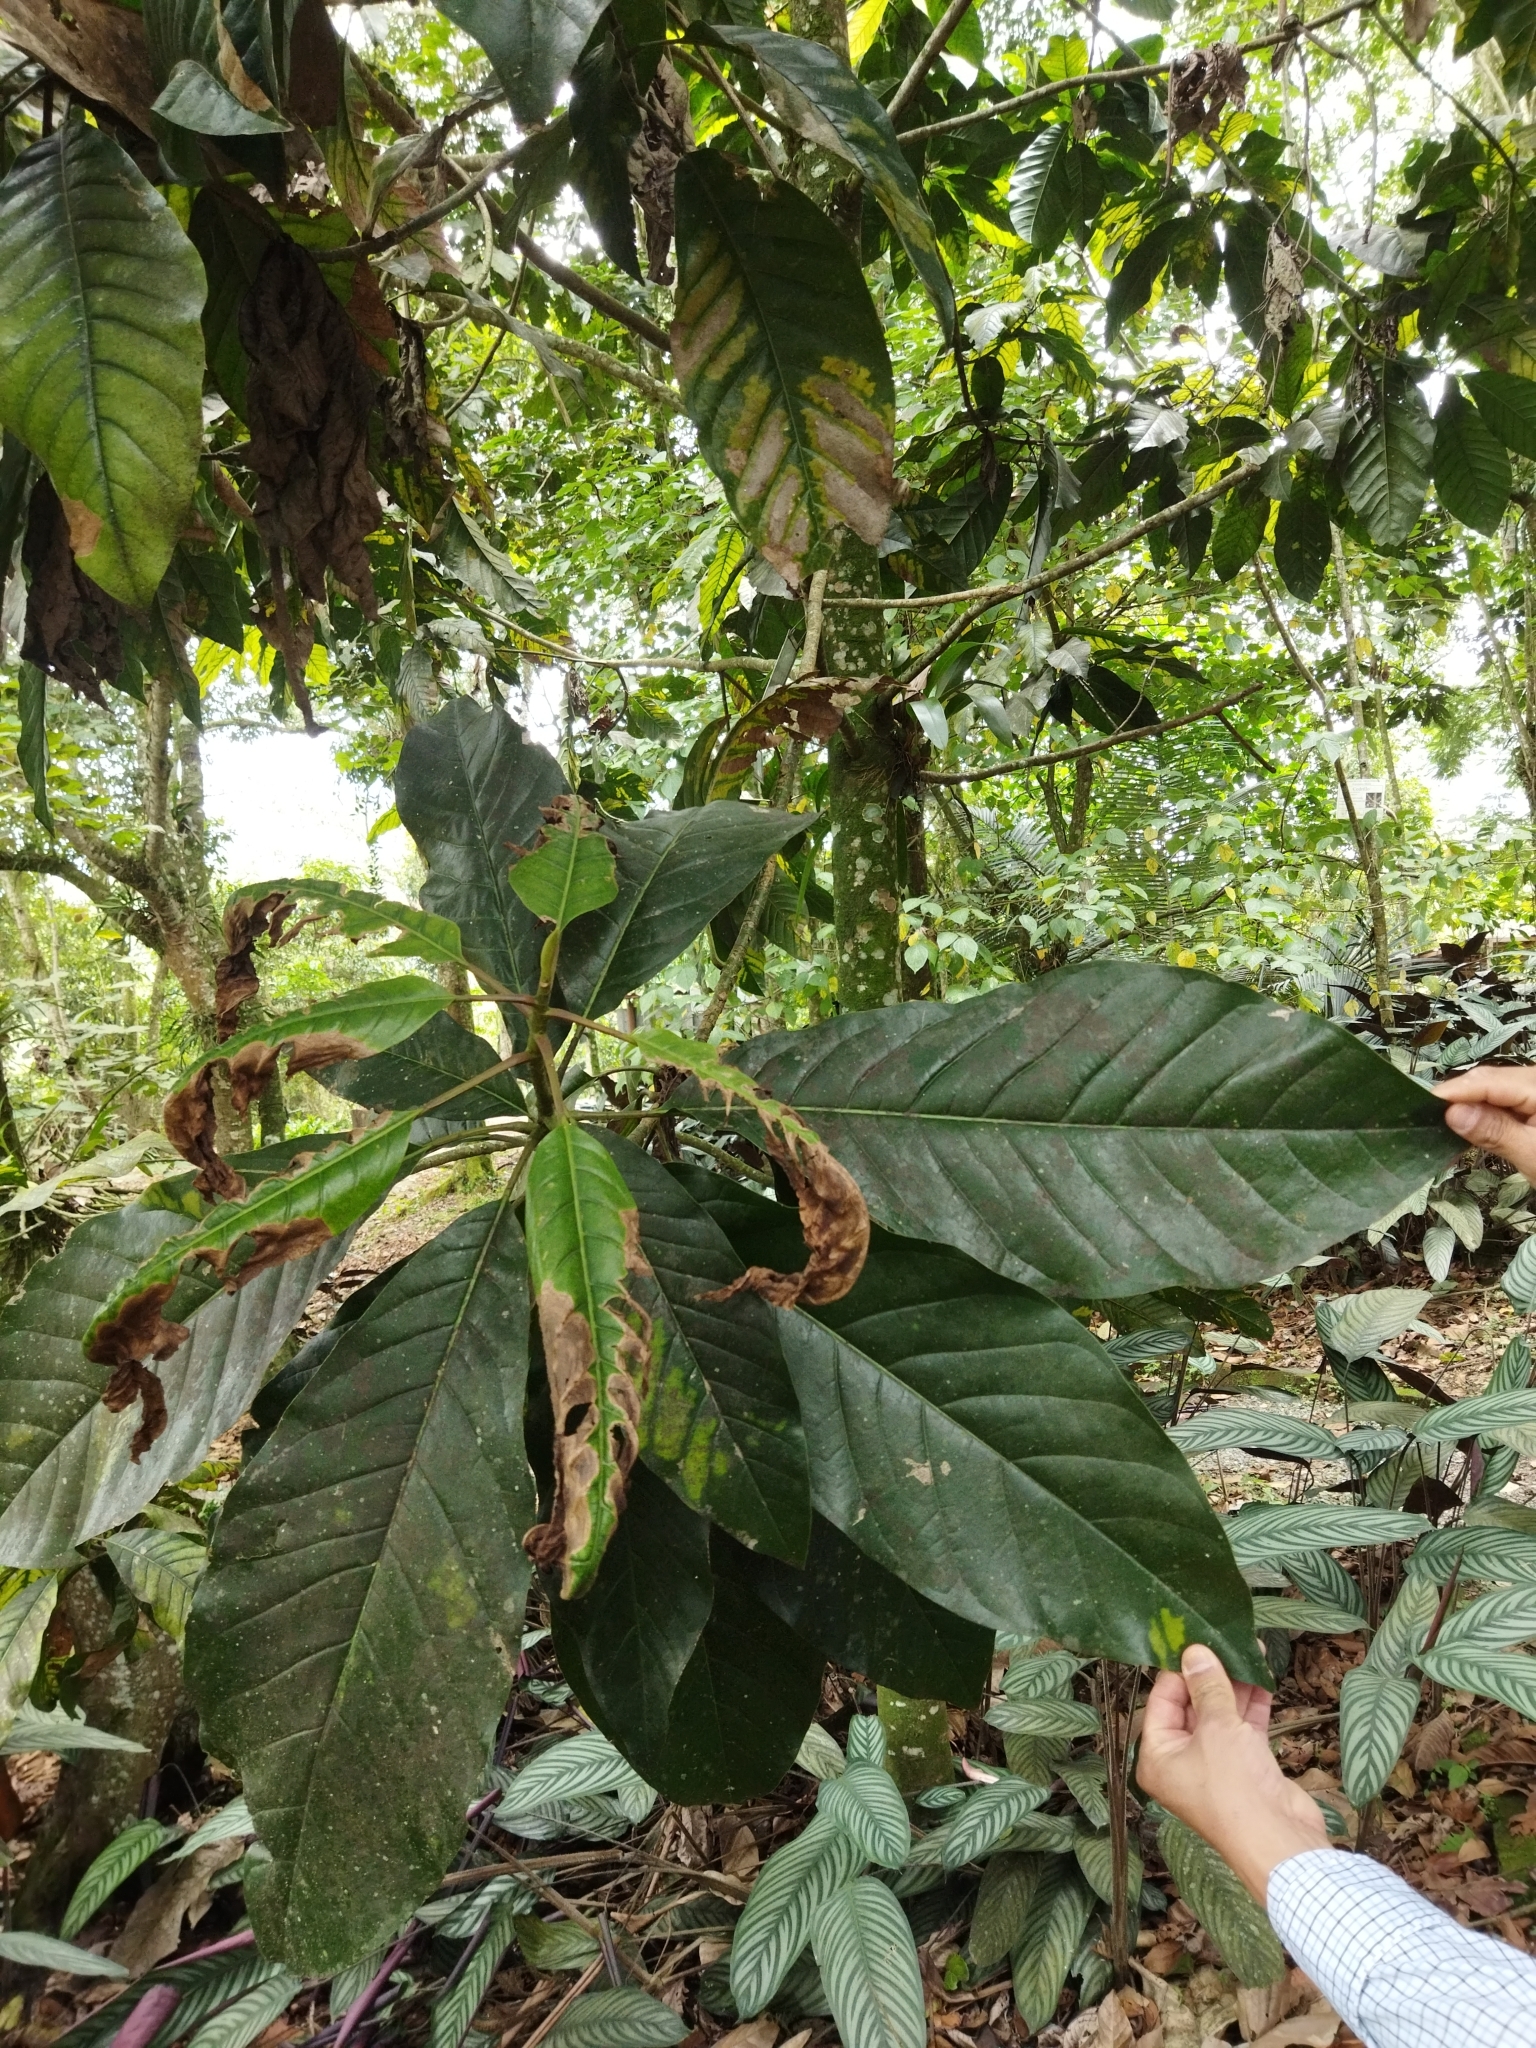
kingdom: Plantae
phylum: Tracheophyta
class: Magnoliopsida
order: Magnoliales
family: Magnoliaceae
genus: Magnolia
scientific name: Magnolia hernandezii
